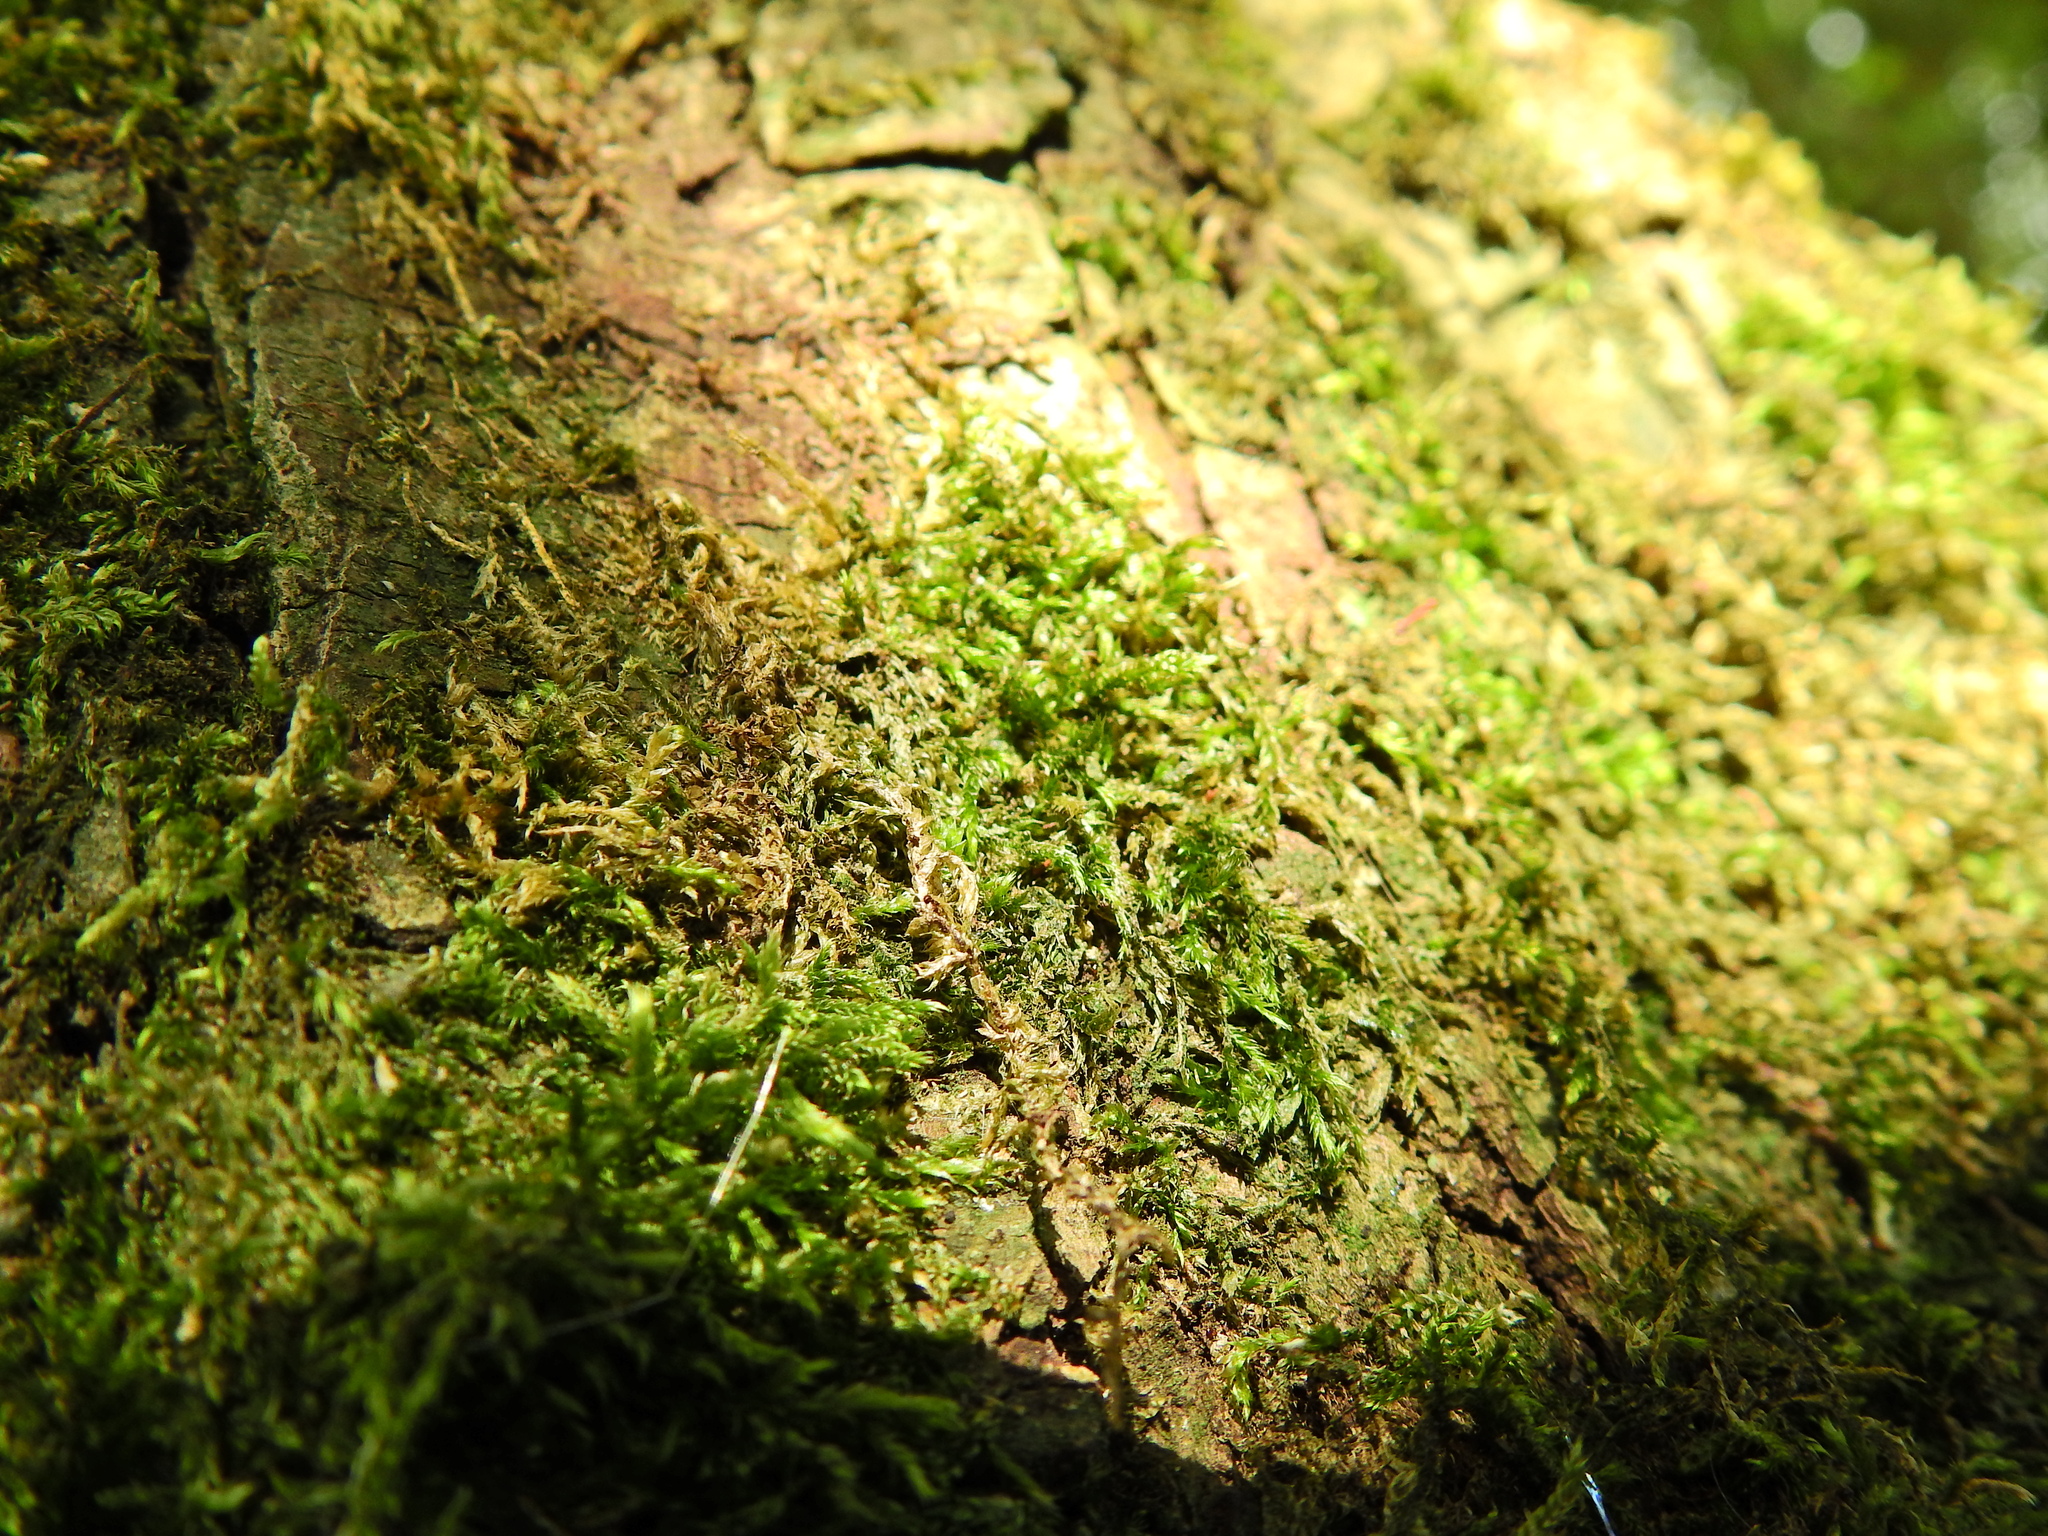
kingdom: Plantae
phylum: Bryophyta
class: Bryopsida
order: Hypnales
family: Hypnaceae
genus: Hypnum
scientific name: Hypnum cupressiforme
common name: Cypress-leaved plait-moss
